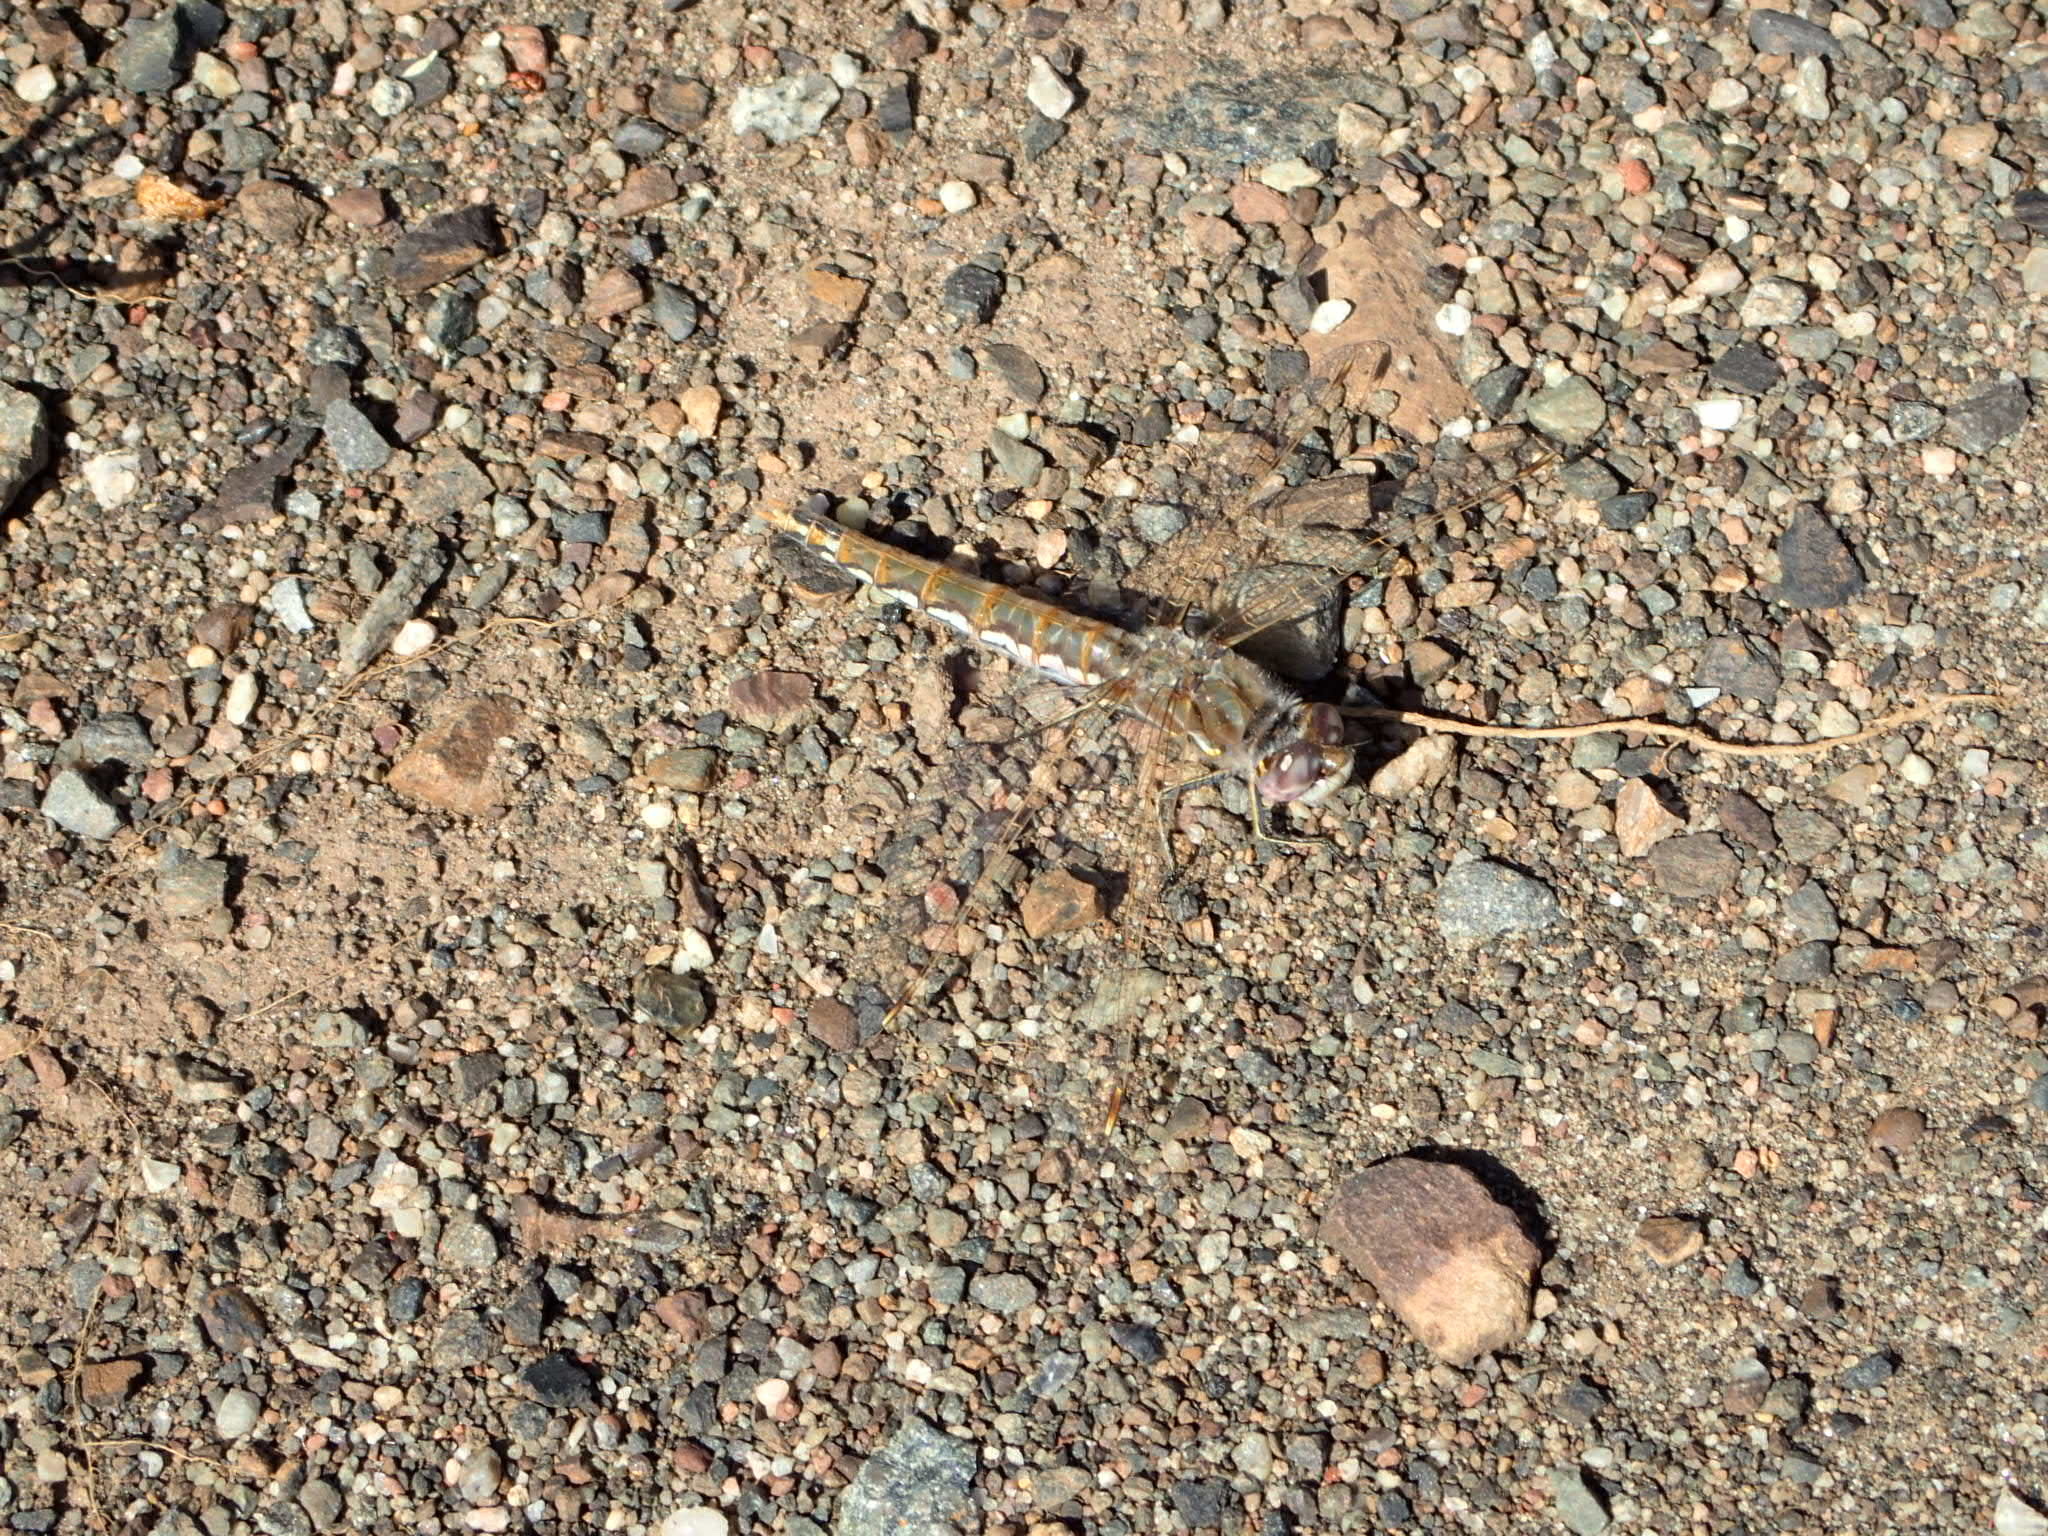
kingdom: Animalia
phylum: Arthropoda
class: Insecta
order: Odonata
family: Libellulidae
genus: Sympetrum
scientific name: Sympetrum corruptum
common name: Variegated meadowhawk
